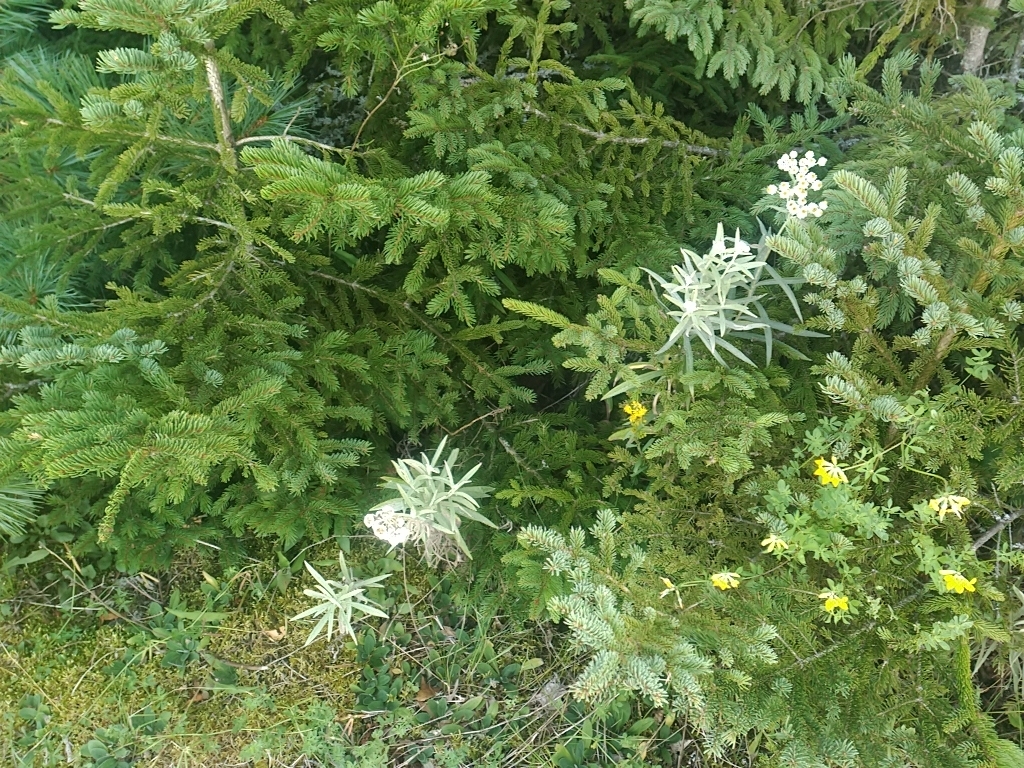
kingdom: Plantae
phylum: Tracheophyta
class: Magnoliopsida
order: Asterales
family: Asteraceae
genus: Anaphalis
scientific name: Anaphalis margaritacea
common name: Pearly everlasting
